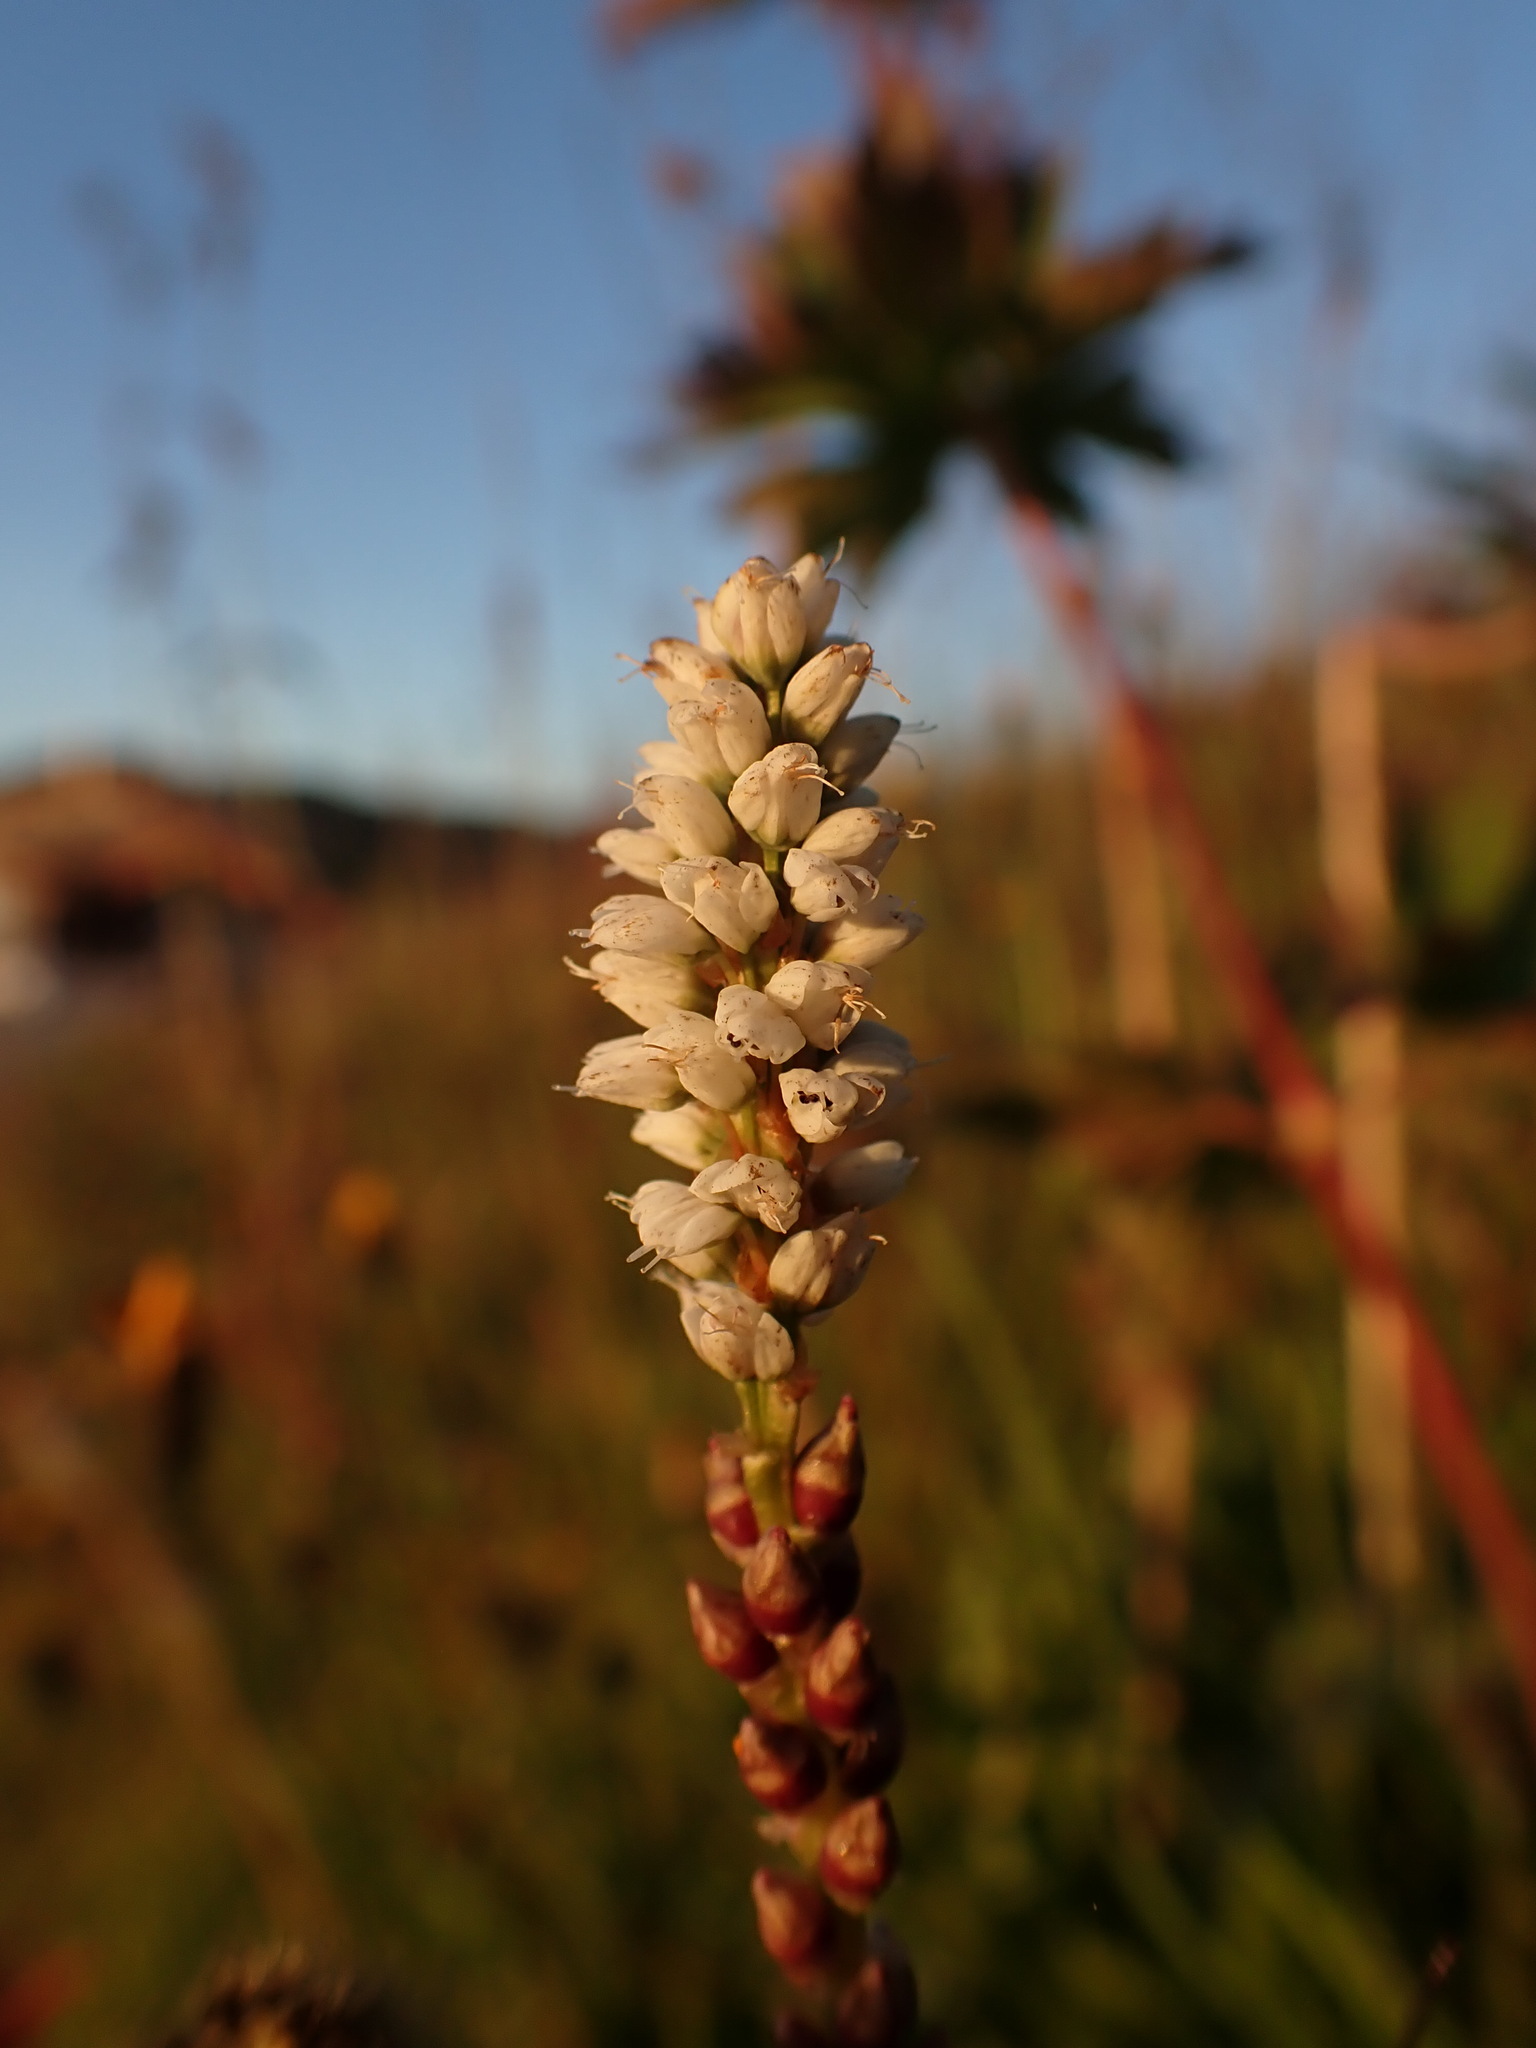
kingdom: Plantae
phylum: Tracheophyta
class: Magnoliopsida
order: Caryophyllales
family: Polygonaceae
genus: Bistorta
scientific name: Bistorta vivipara
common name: Alpine bistort
